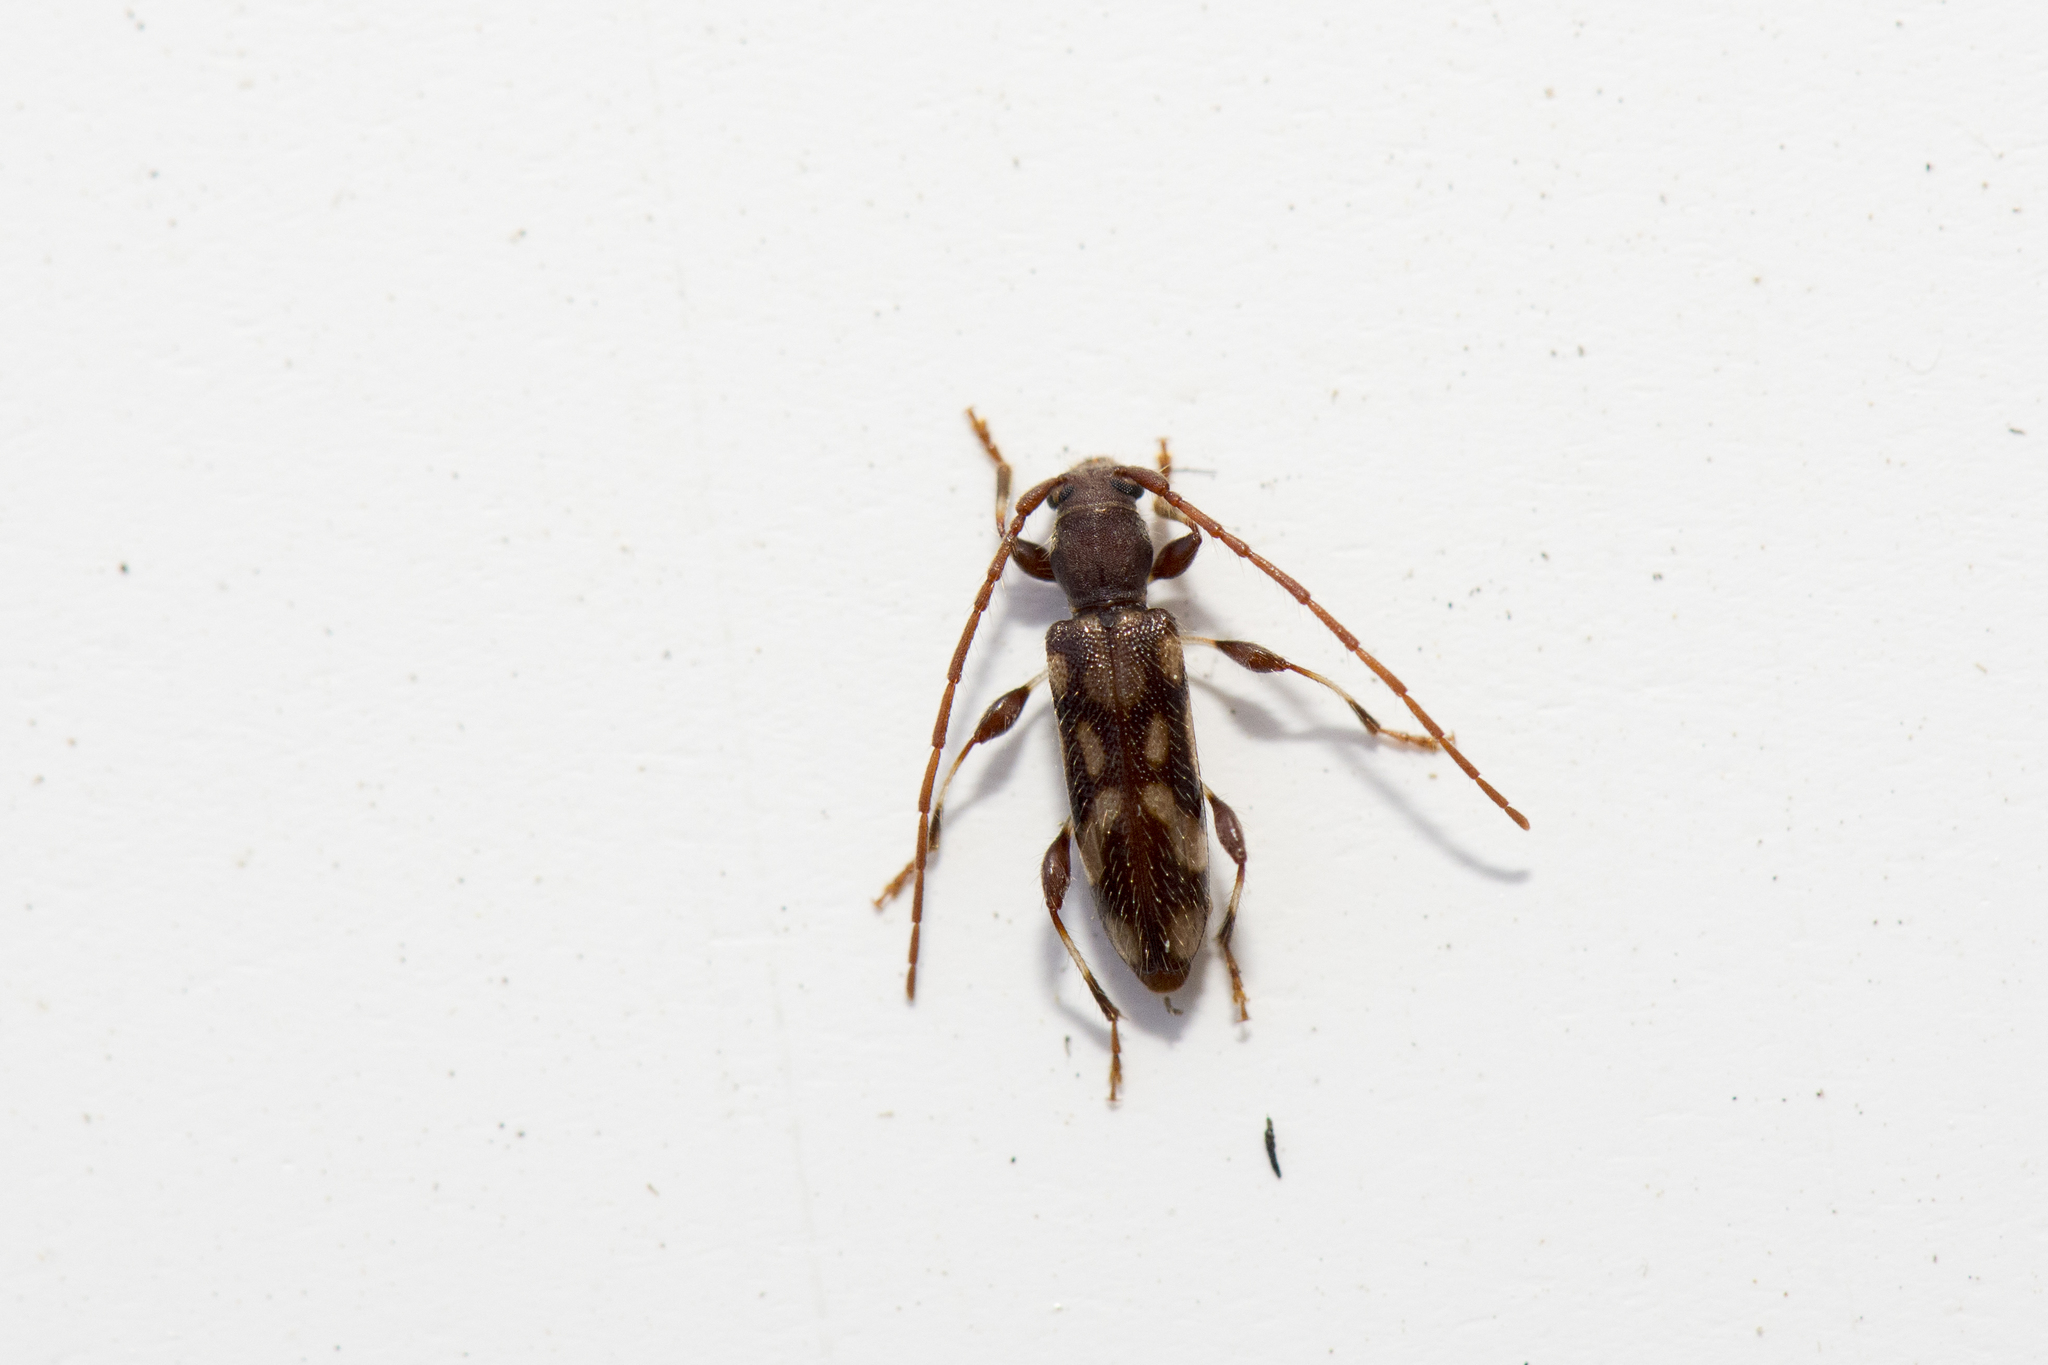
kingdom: Animalia
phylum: Arthropoda
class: Insecta
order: Coleoptera
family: Cerambycidae
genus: Bethelium
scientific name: Bethelium signiferum
